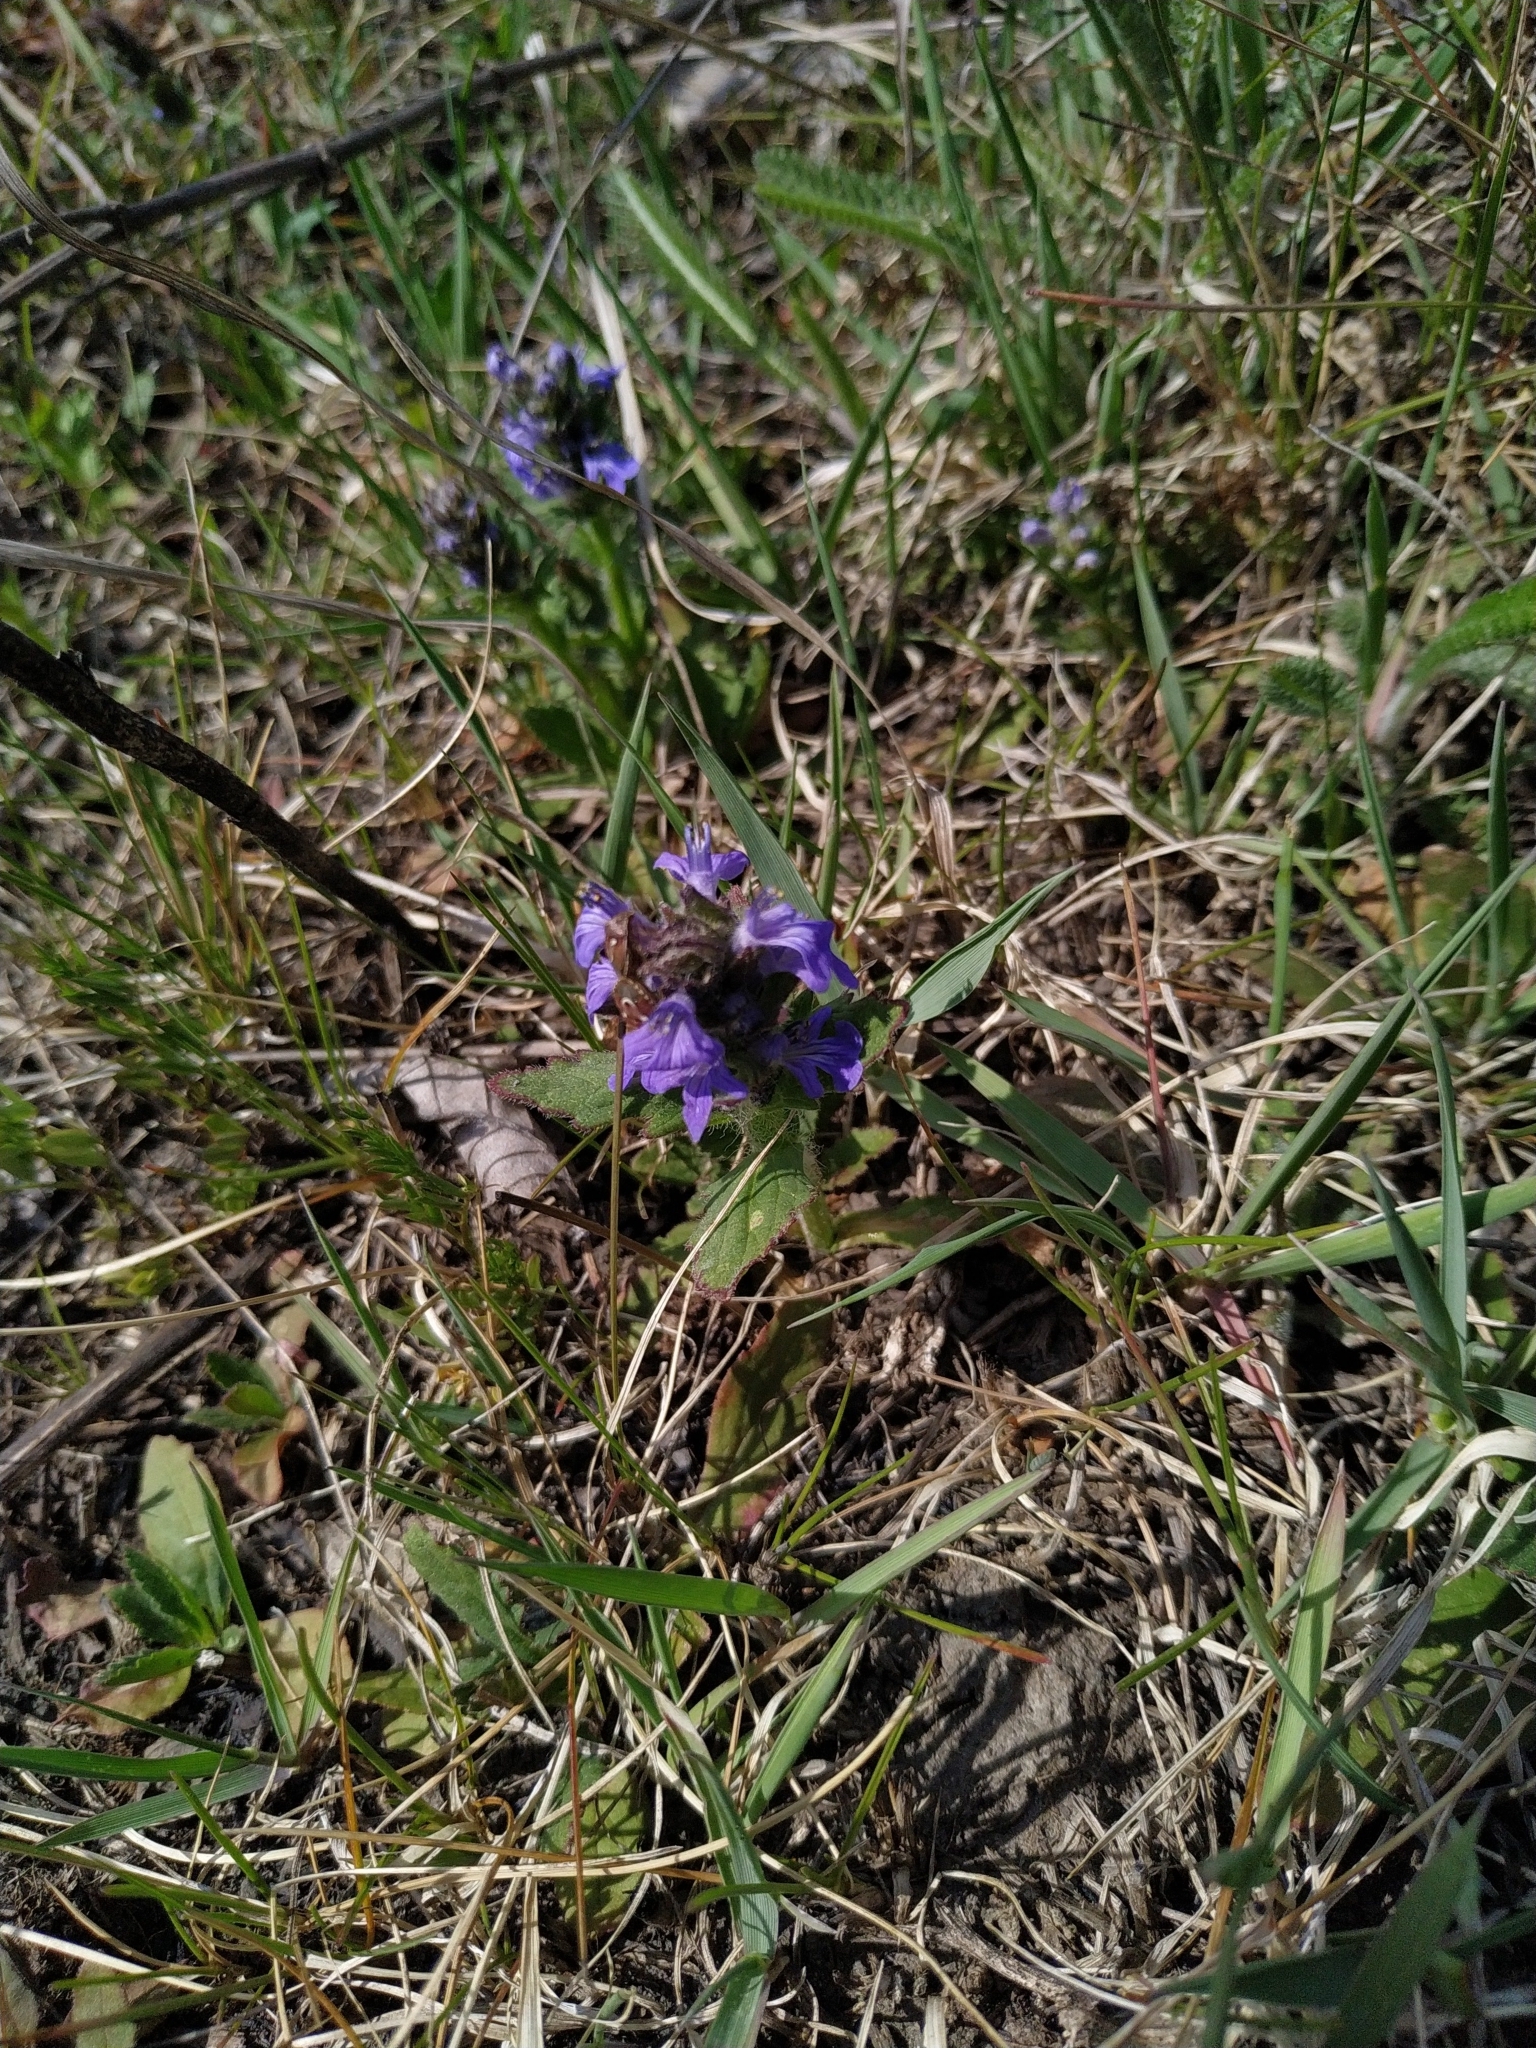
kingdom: Plantae
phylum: Tracheophyta
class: Magnoliopsida
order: Lamiales
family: Lamiaceae
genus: Ajuga
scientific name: Ajuga genevensis
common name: Blue bugle
